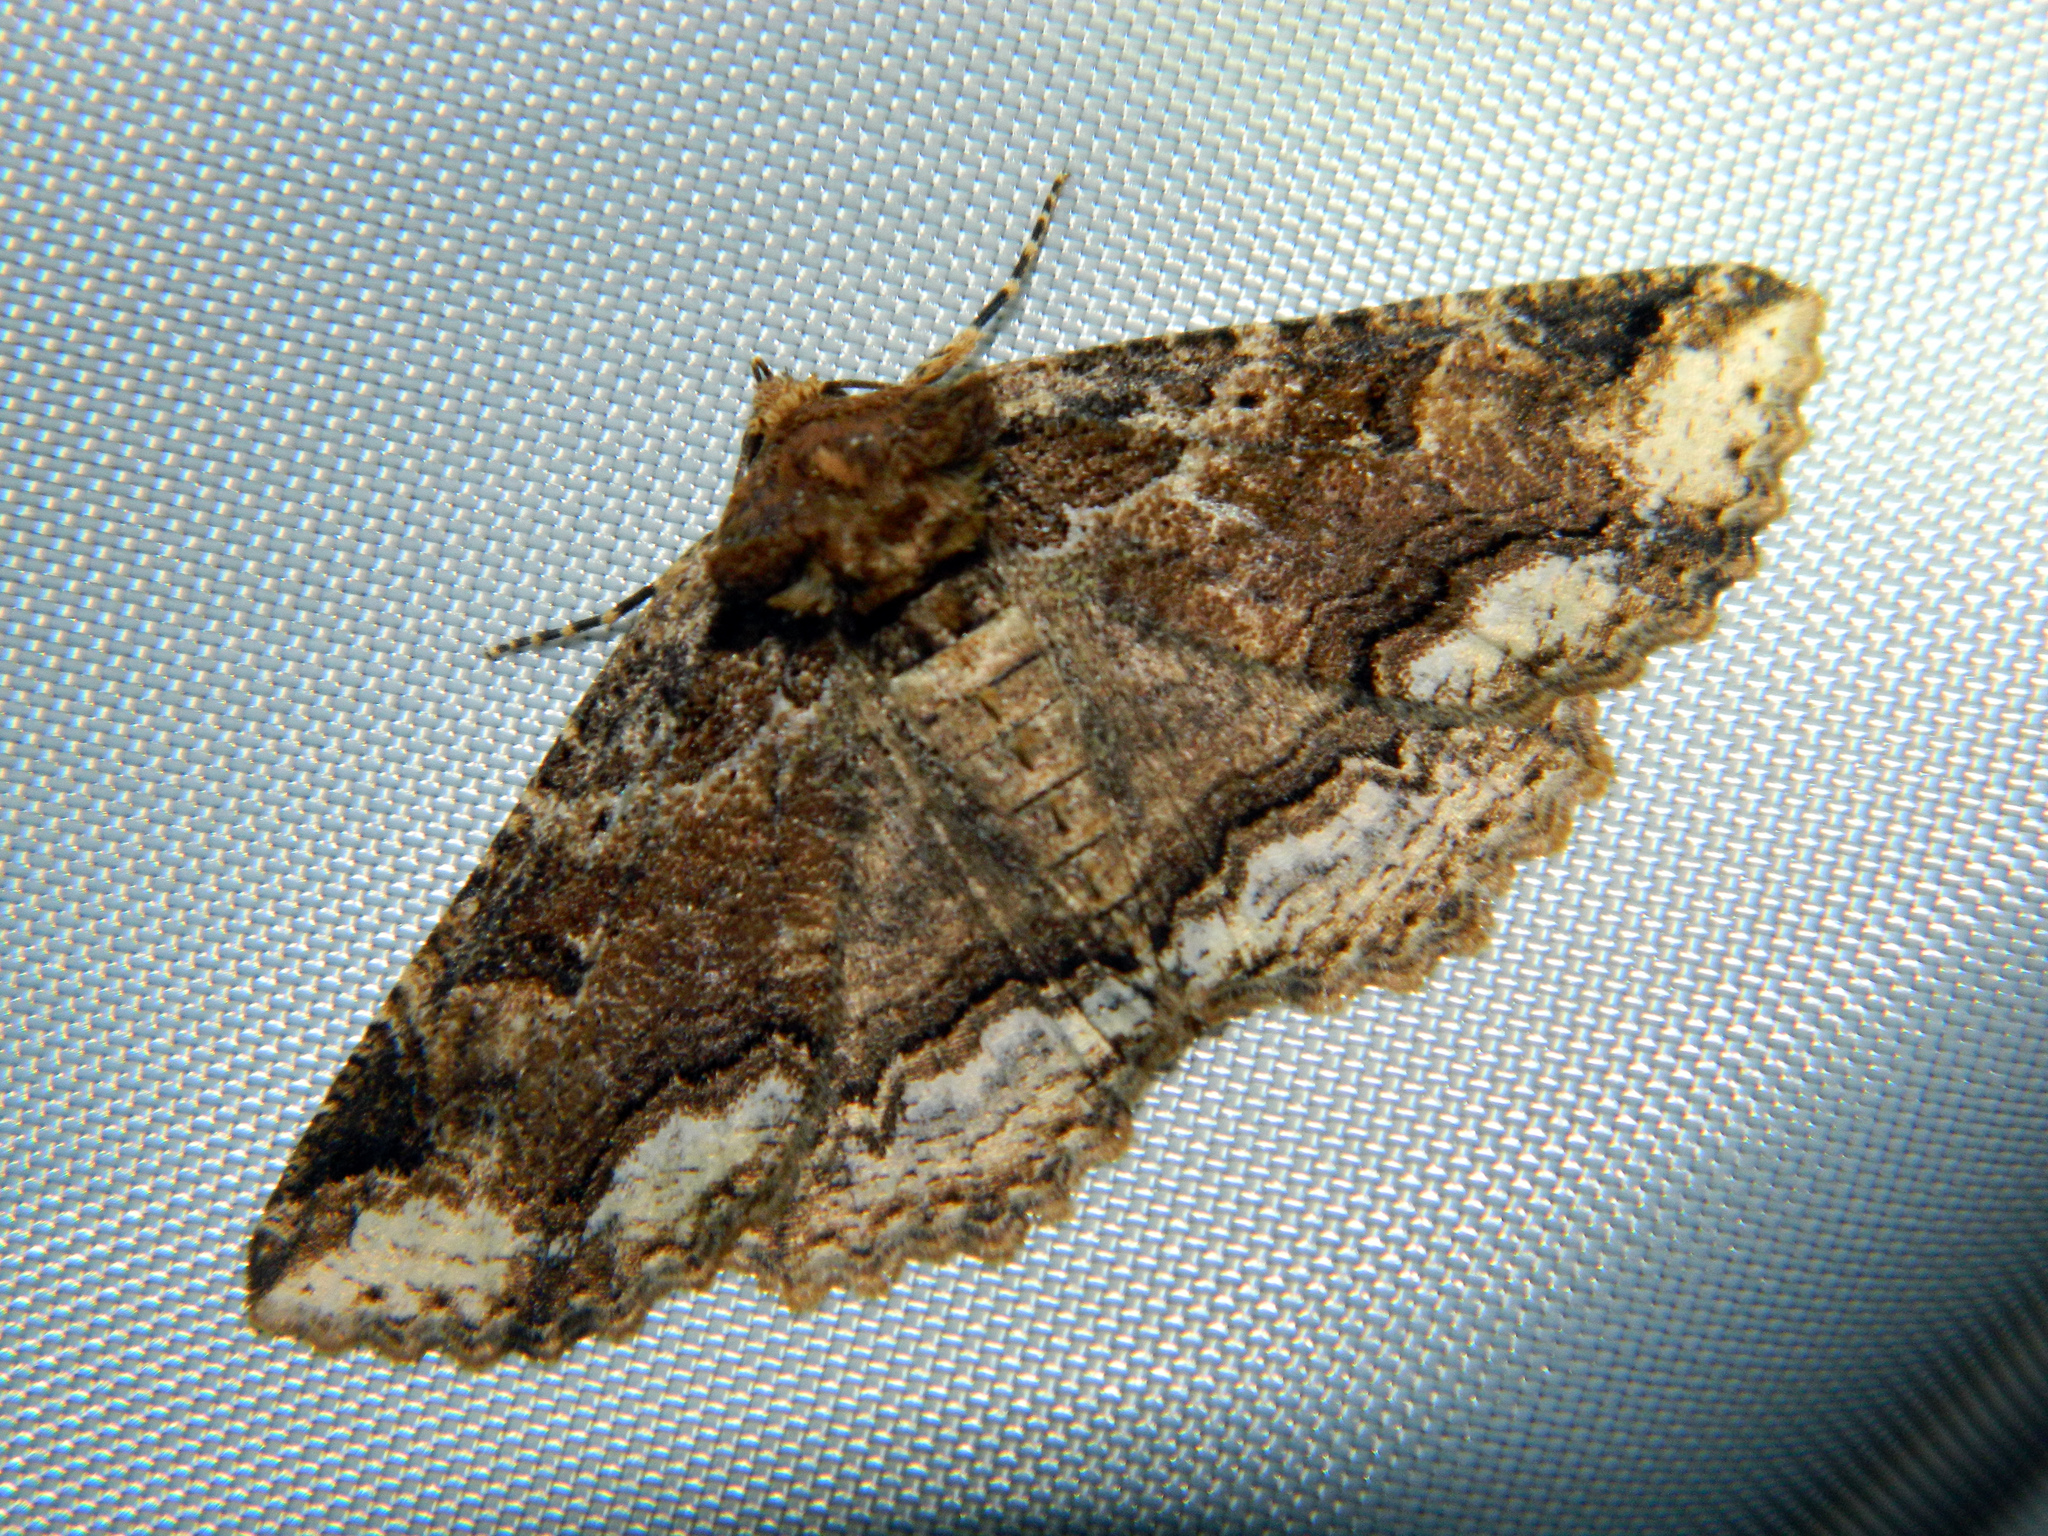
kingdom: Animalia
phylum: Arthropoda
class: Insecta
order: Lepidoptera
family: Erebidae
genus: Zale
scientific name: Zale minerea
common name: Colorful zale moth
